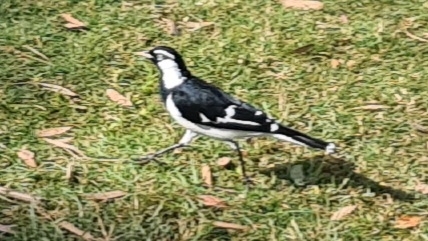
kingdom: Animalia
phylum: Chordata
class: Aves
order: Passeriformes
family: Monarchidae
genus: Grallina
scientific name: Grallina cyanoleuca
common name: Magpie-lark
